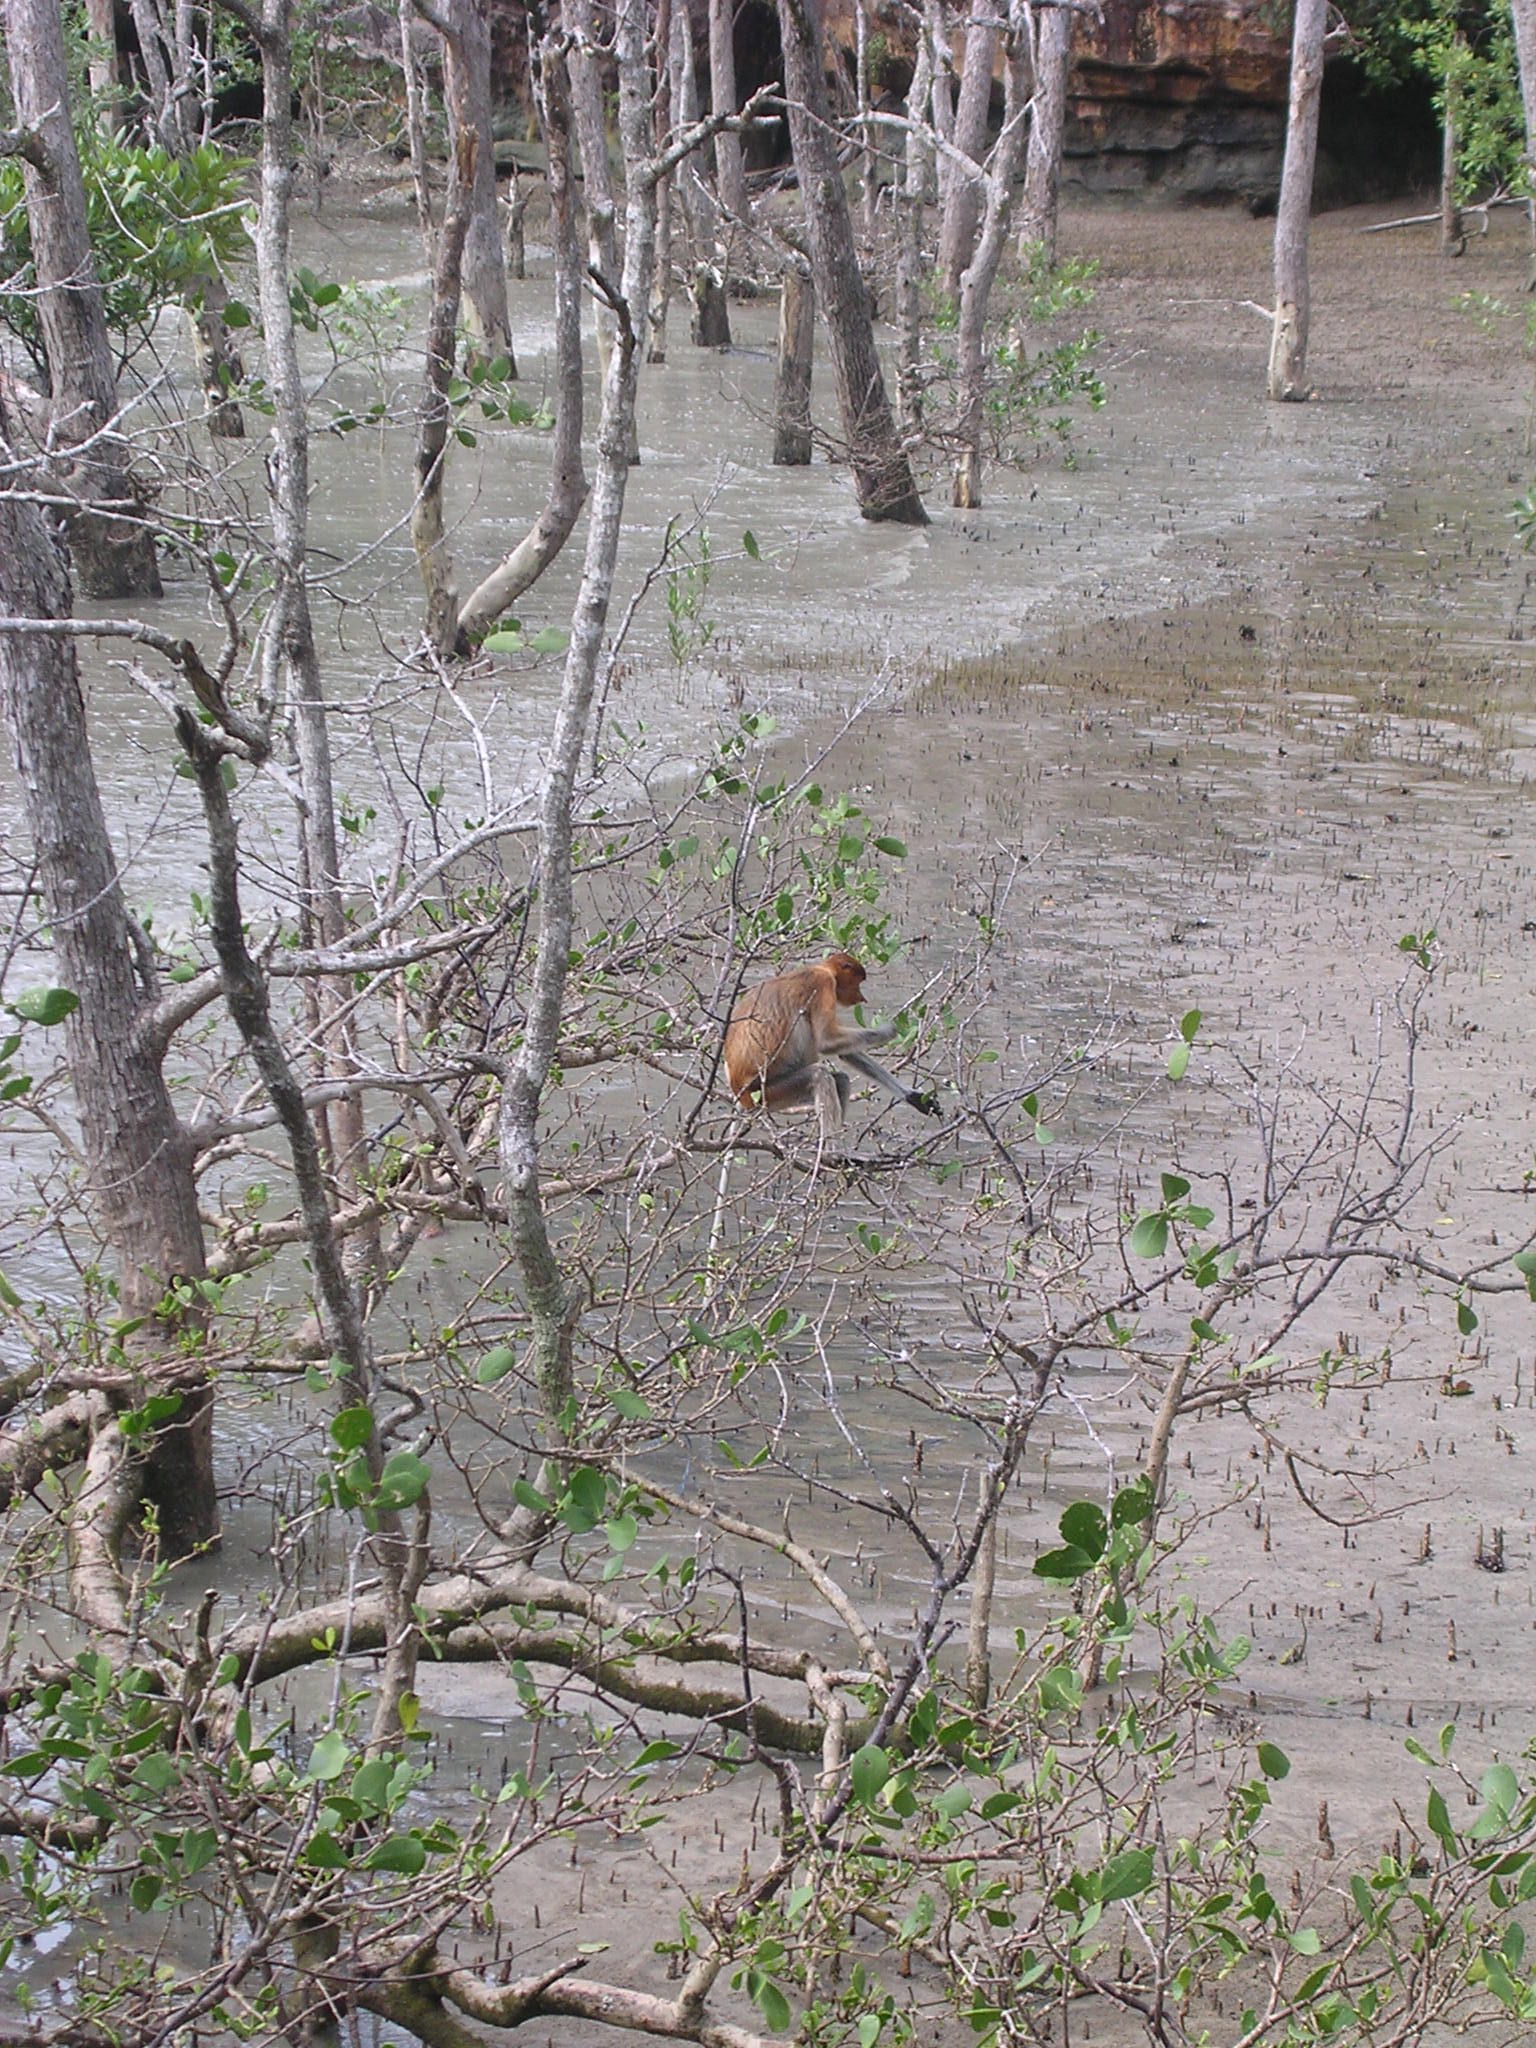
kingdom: Animalia
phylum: Chordata
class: Mammalia
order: Primates
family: Cercopithecidae
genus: Nasalis
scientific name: Nasalis larvatus
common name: Proboscis monkey
